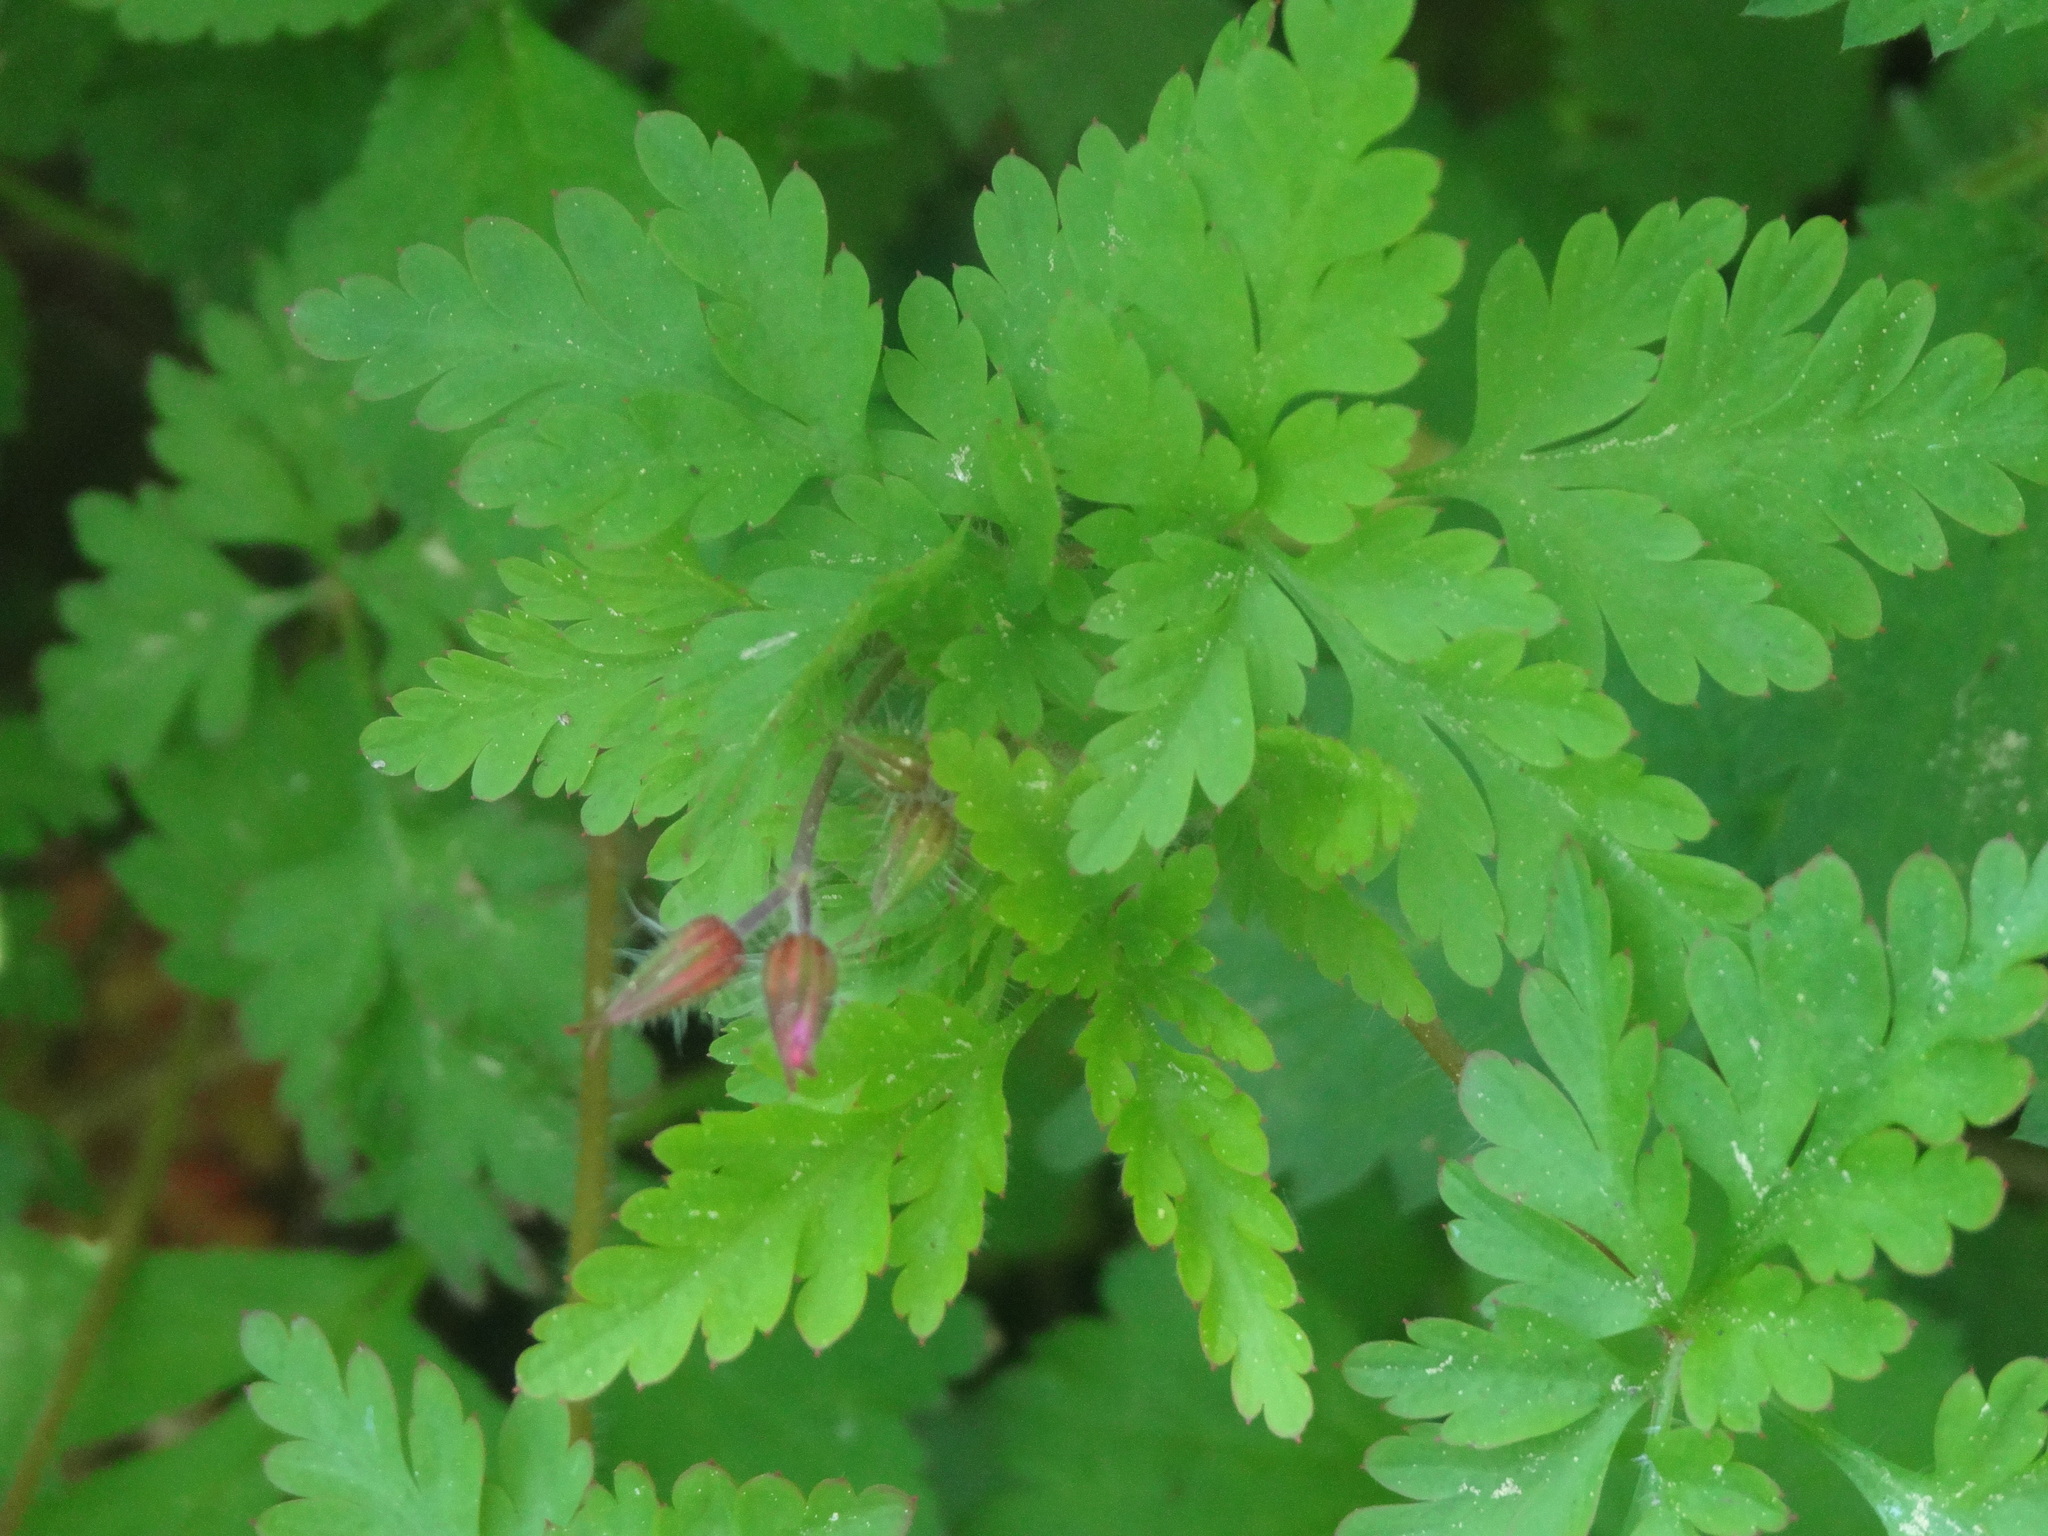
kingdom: Plantae
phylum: Tracheophyta
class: Magnoliopsida
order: Geraniales
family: Geraniaceae
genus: Geranium
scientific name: Geranium robertianum
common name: Herb-robert
